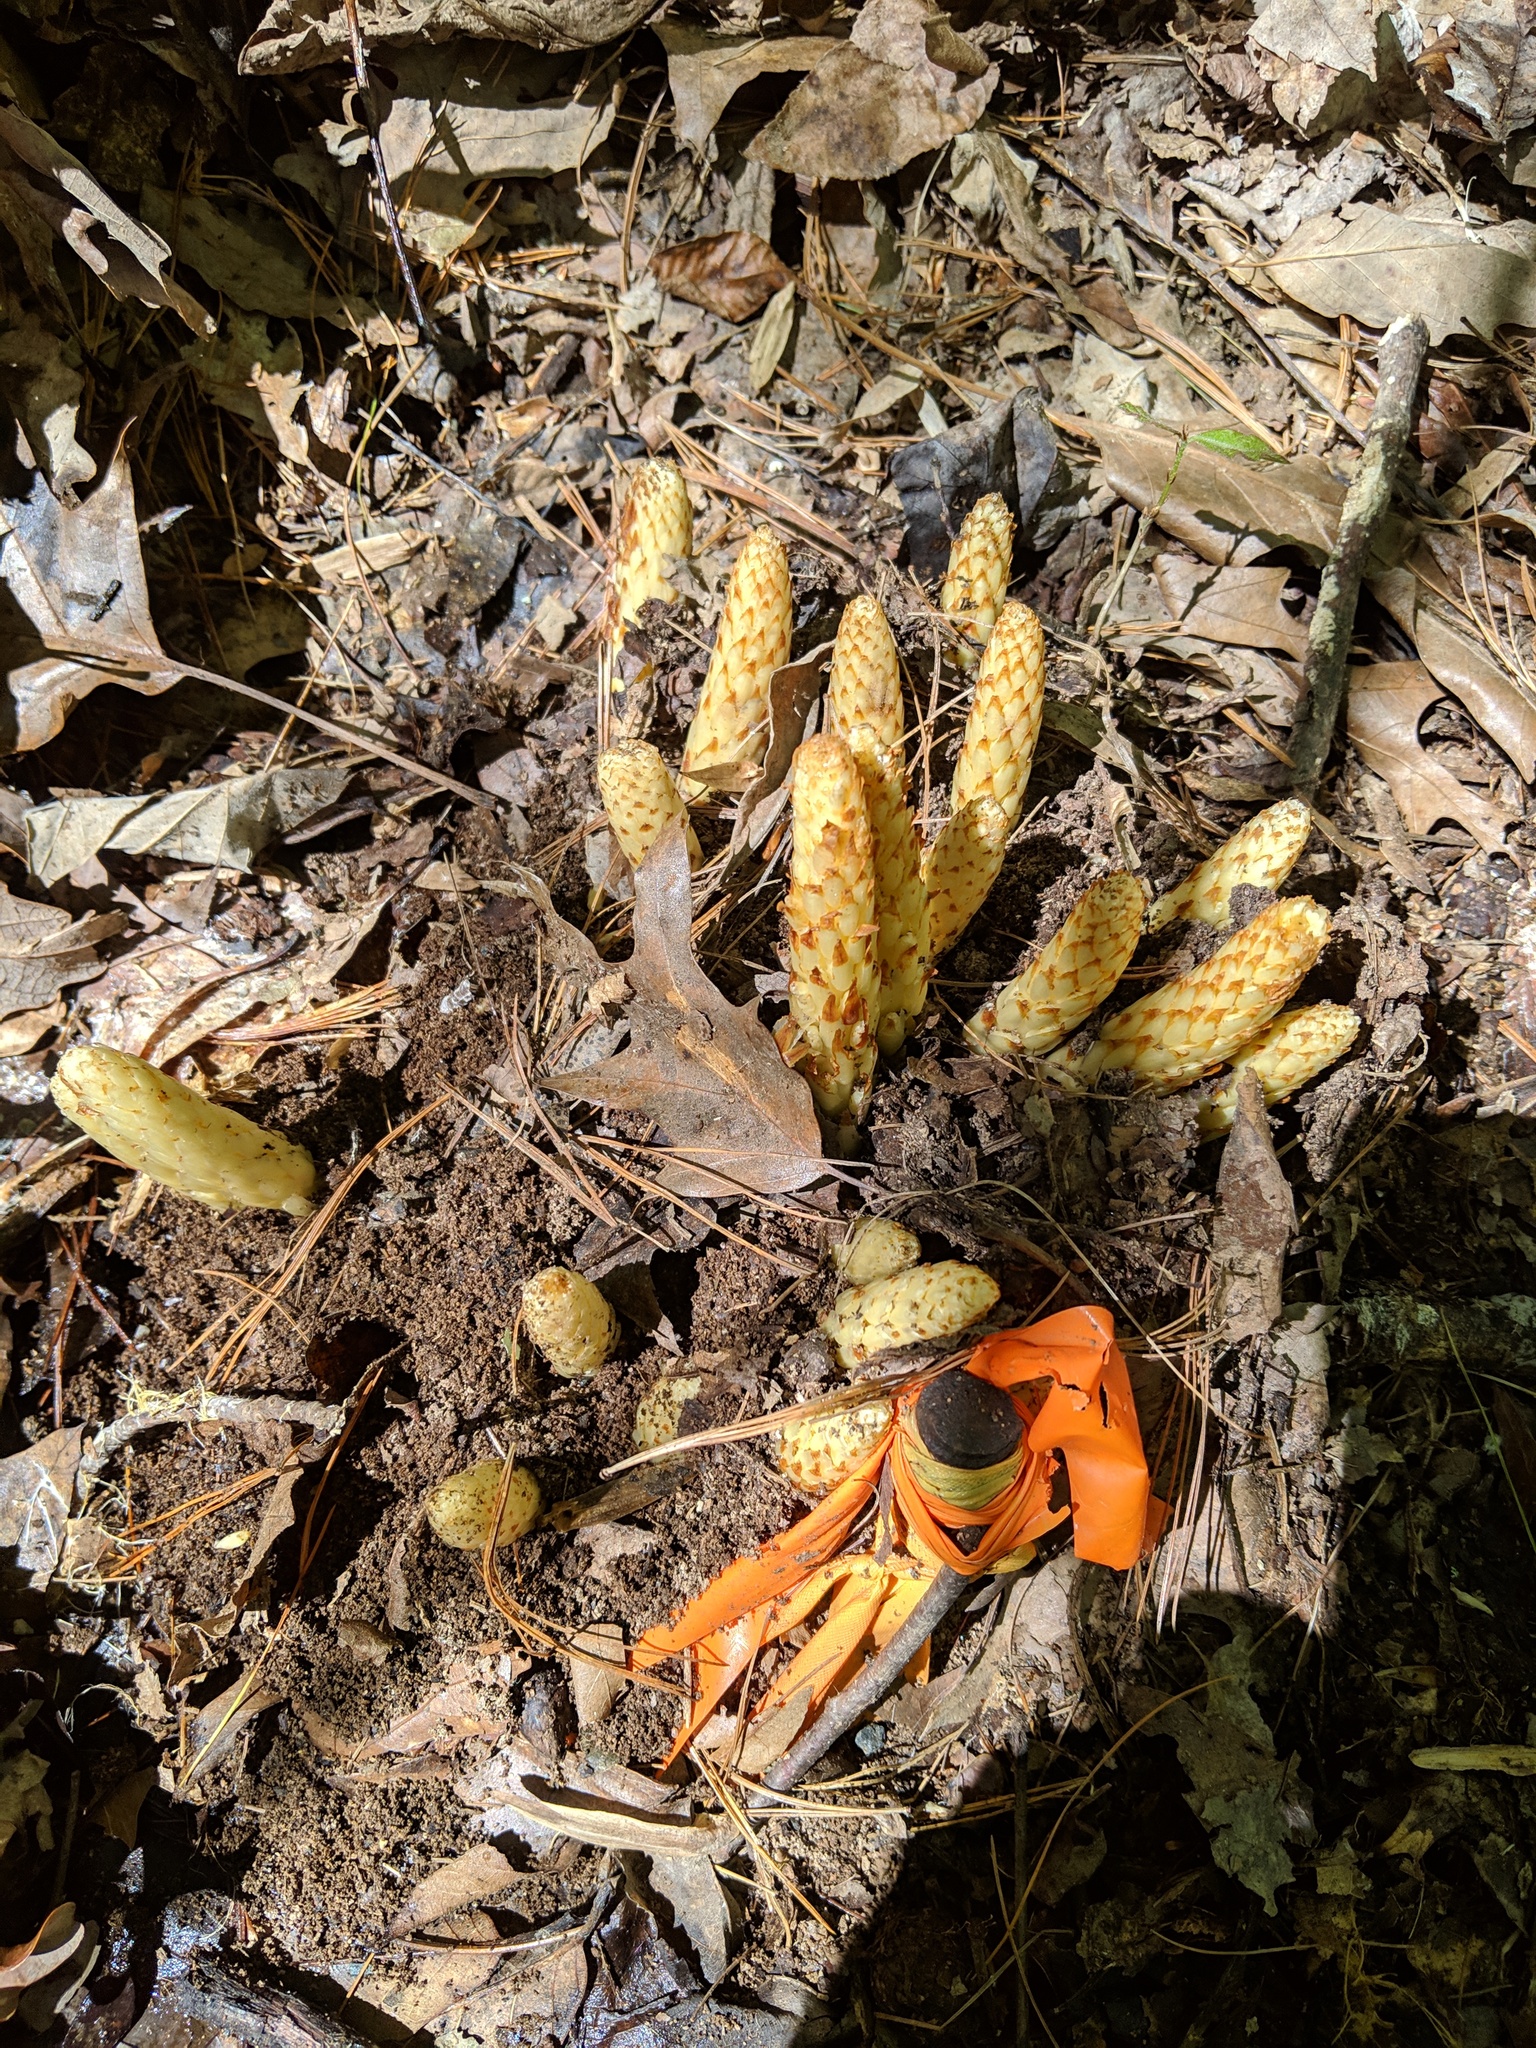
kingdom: Plantae
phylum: Tracheophyta
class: Magnoliopsida
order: Lamiales
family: Orobanchaceae
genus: Conopholis
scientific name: Conopholis americana
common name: American cancer-root
